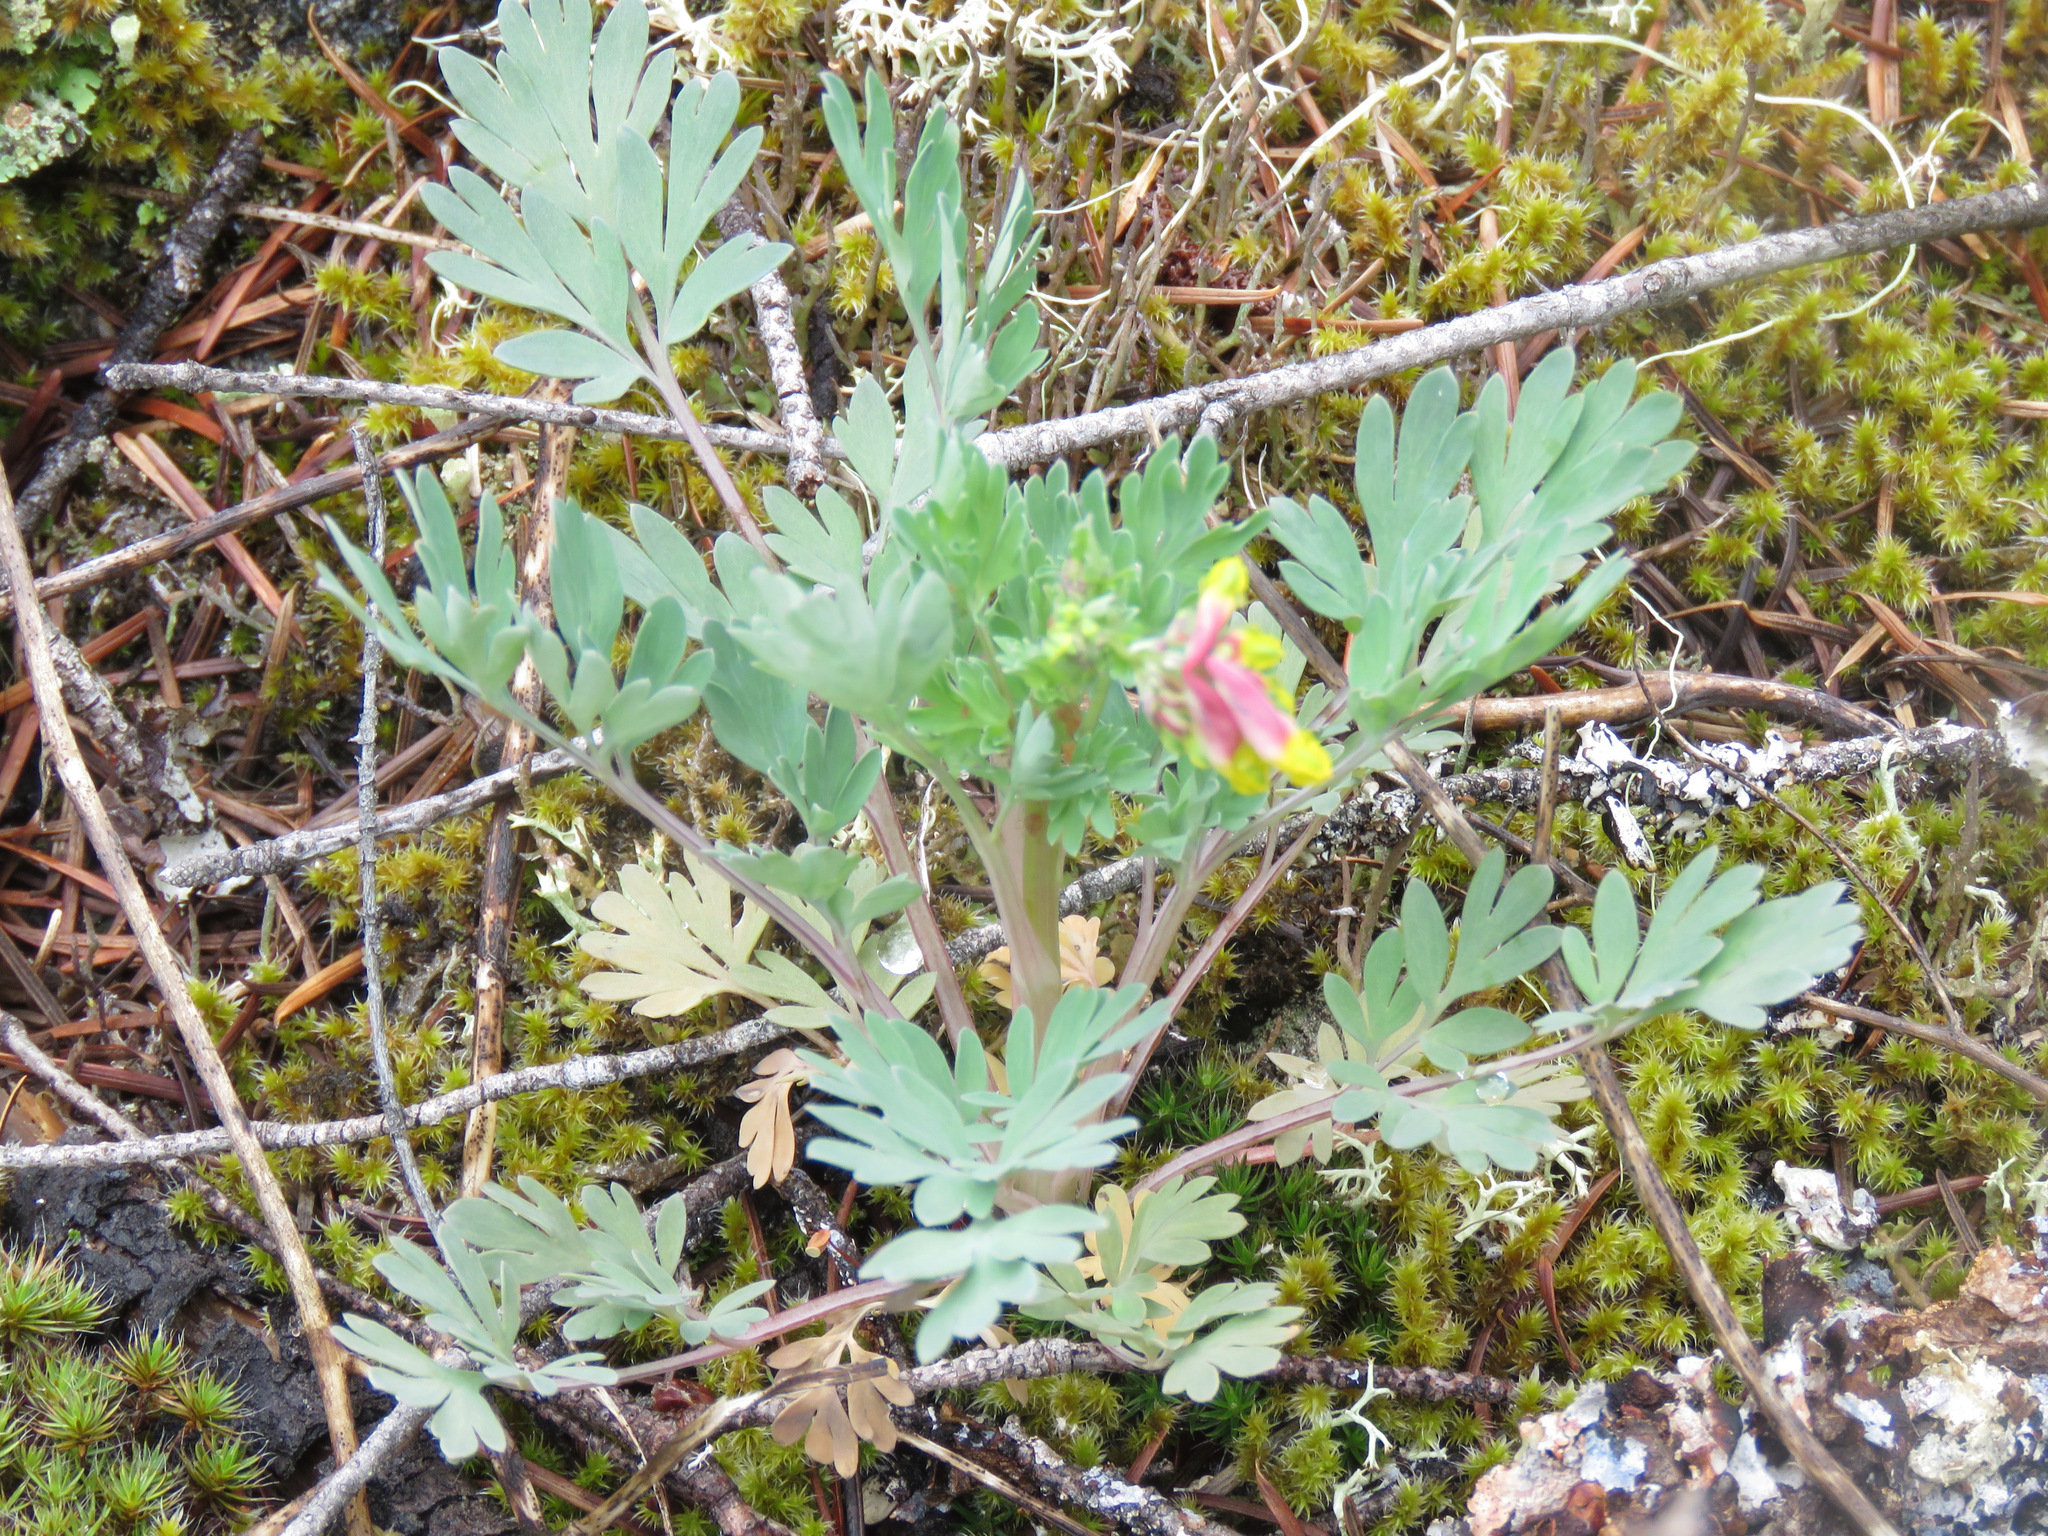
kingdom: Plantae
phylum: Tracheophyta
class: Magnoliopsida
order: Ranunculales
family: Papaveraceae
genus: Capnoides
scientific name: Capnoides sempervirens
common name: Rock harlequin
